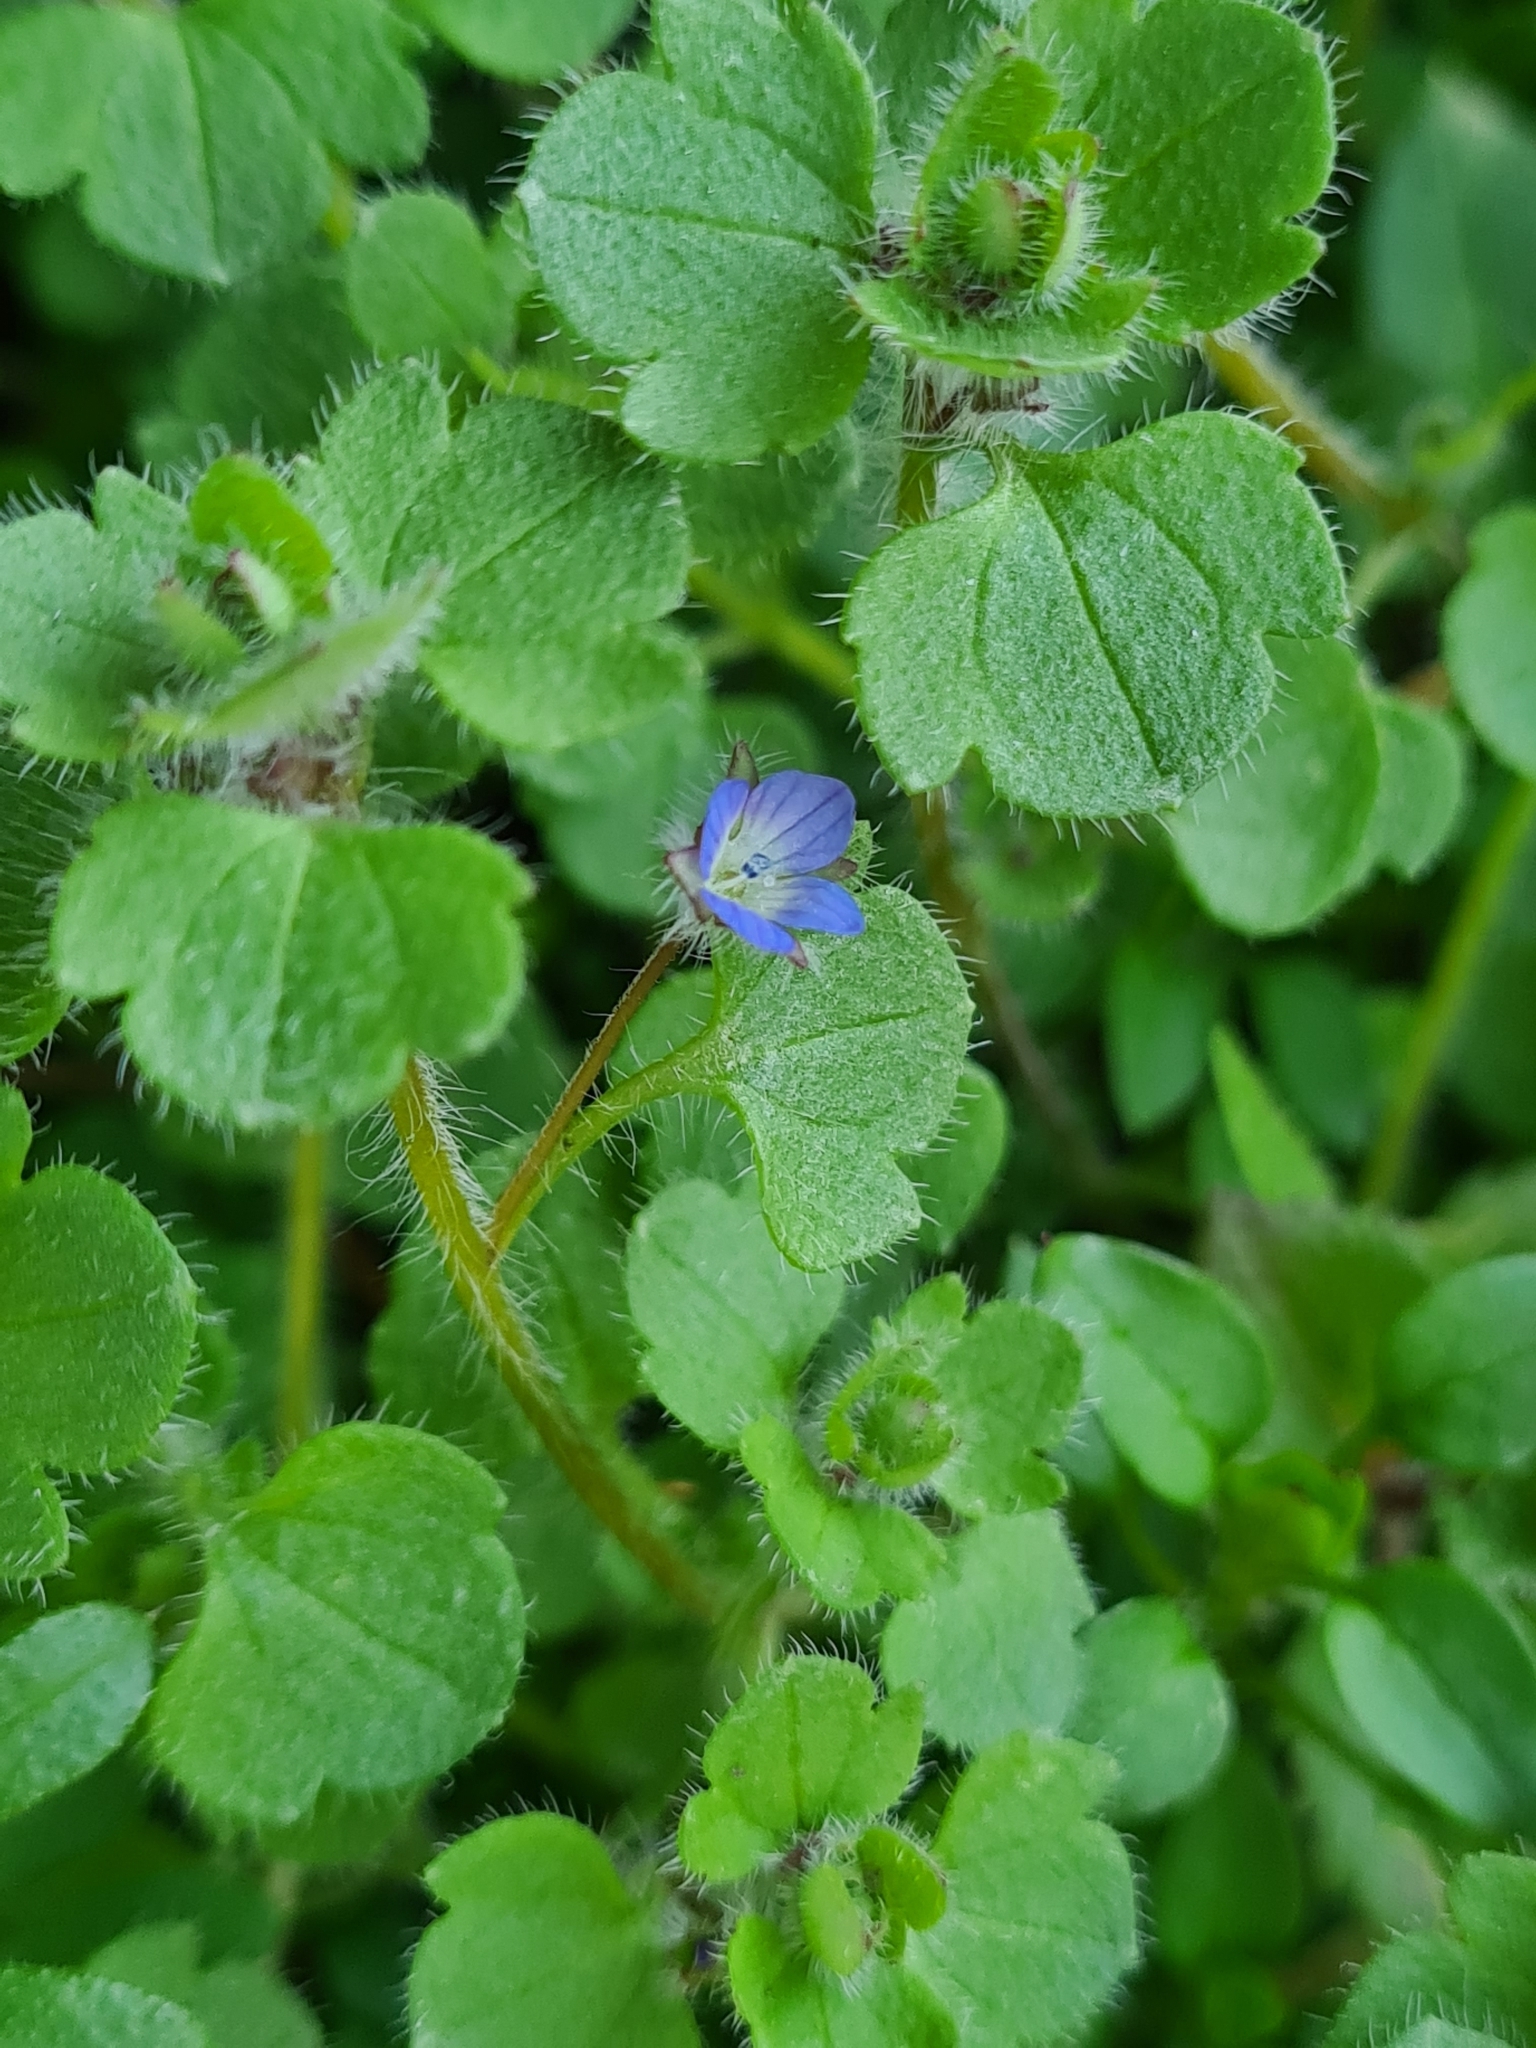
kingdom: Plantae
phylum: Tracheophyta
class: Magnoliopsida
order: Lamiales
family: Plantaginaceae
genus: Veronica
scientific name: Veronica hederifolia
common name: Ivy-leaved speedwell
